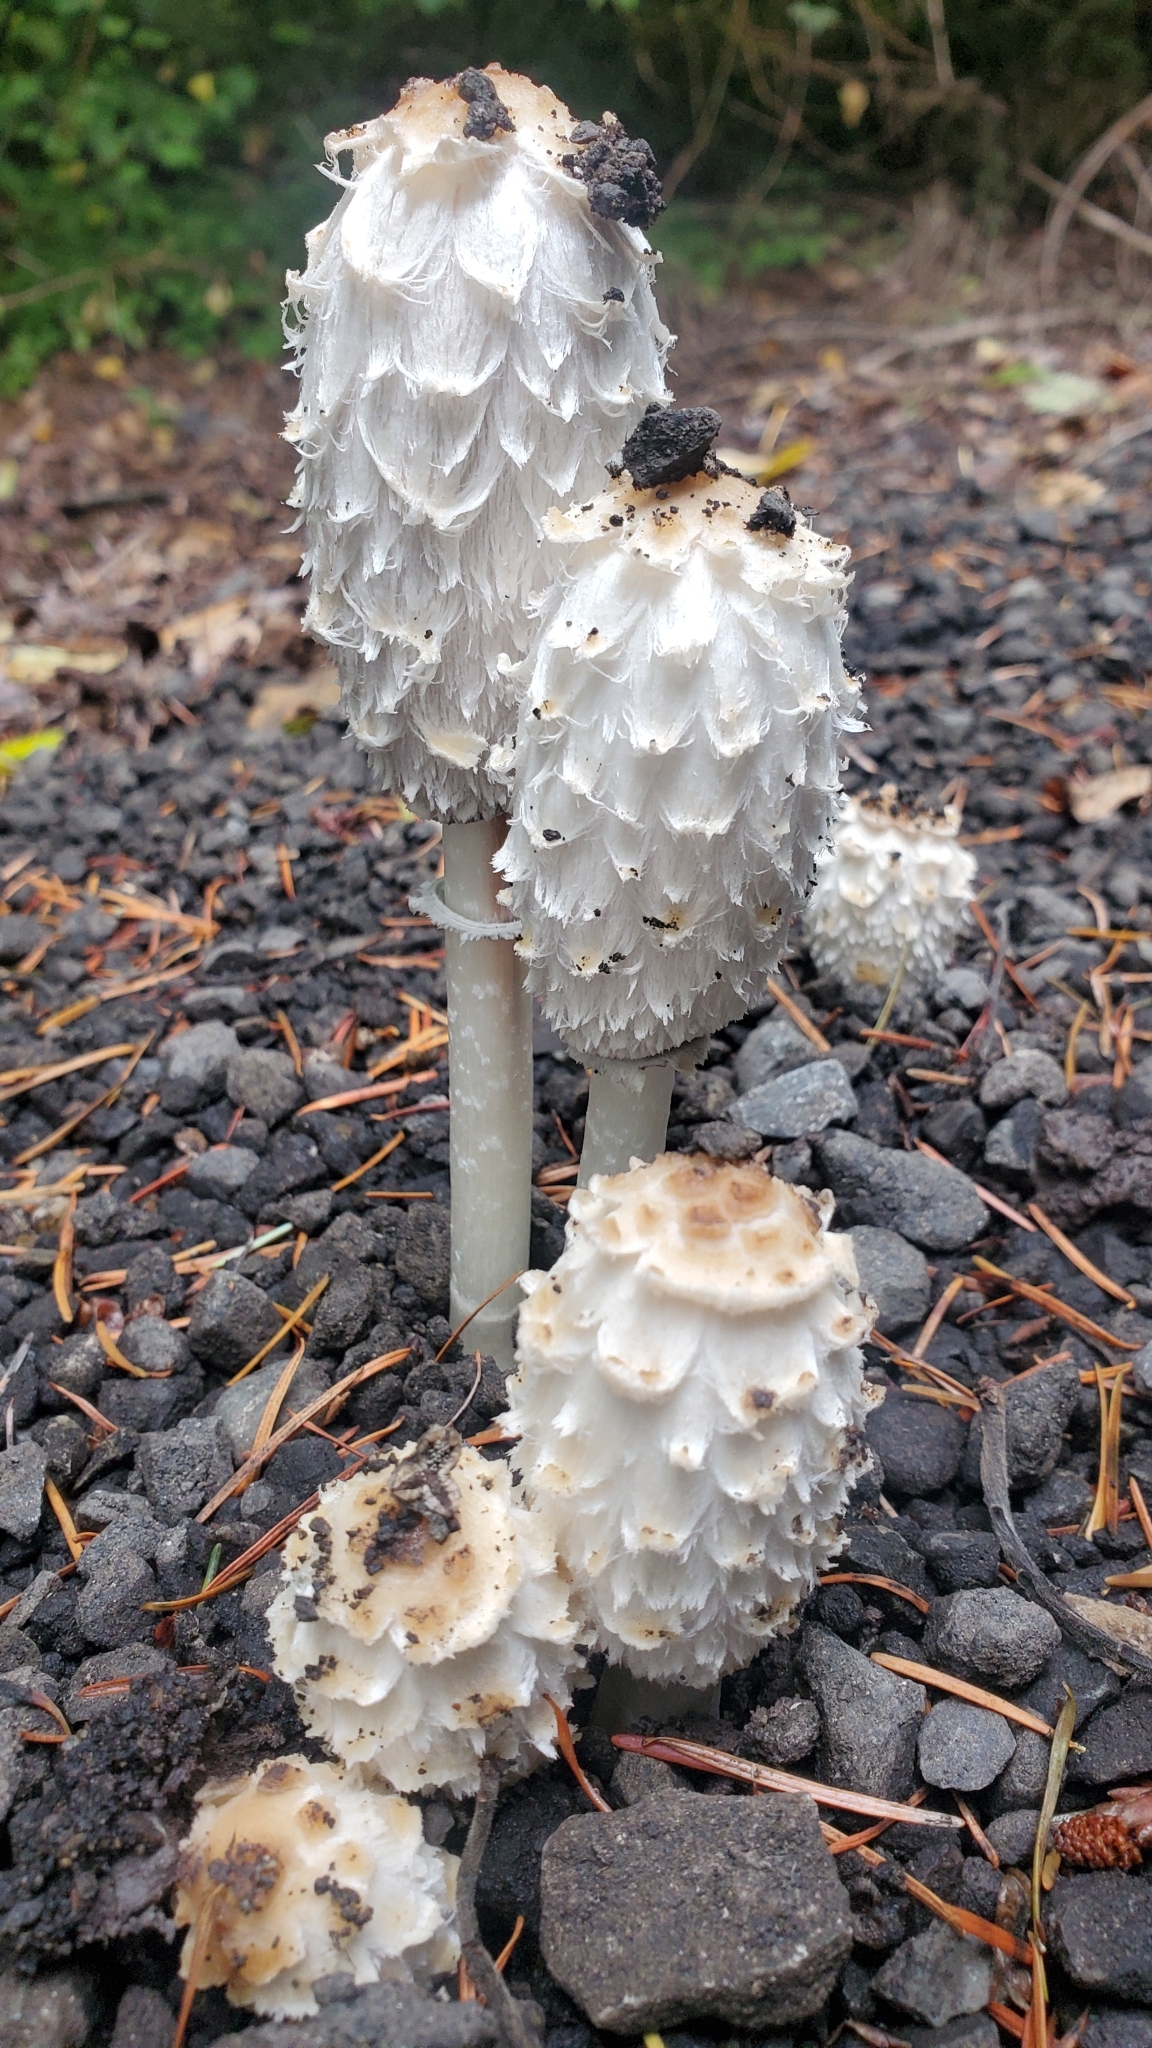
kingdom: Fungi
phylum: Basidiomycota
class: Agaricomycetes
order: Agaricales
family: Agaricaceae
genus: Coprinus
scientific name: Coprinus comatus
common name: Lawyer's wig
